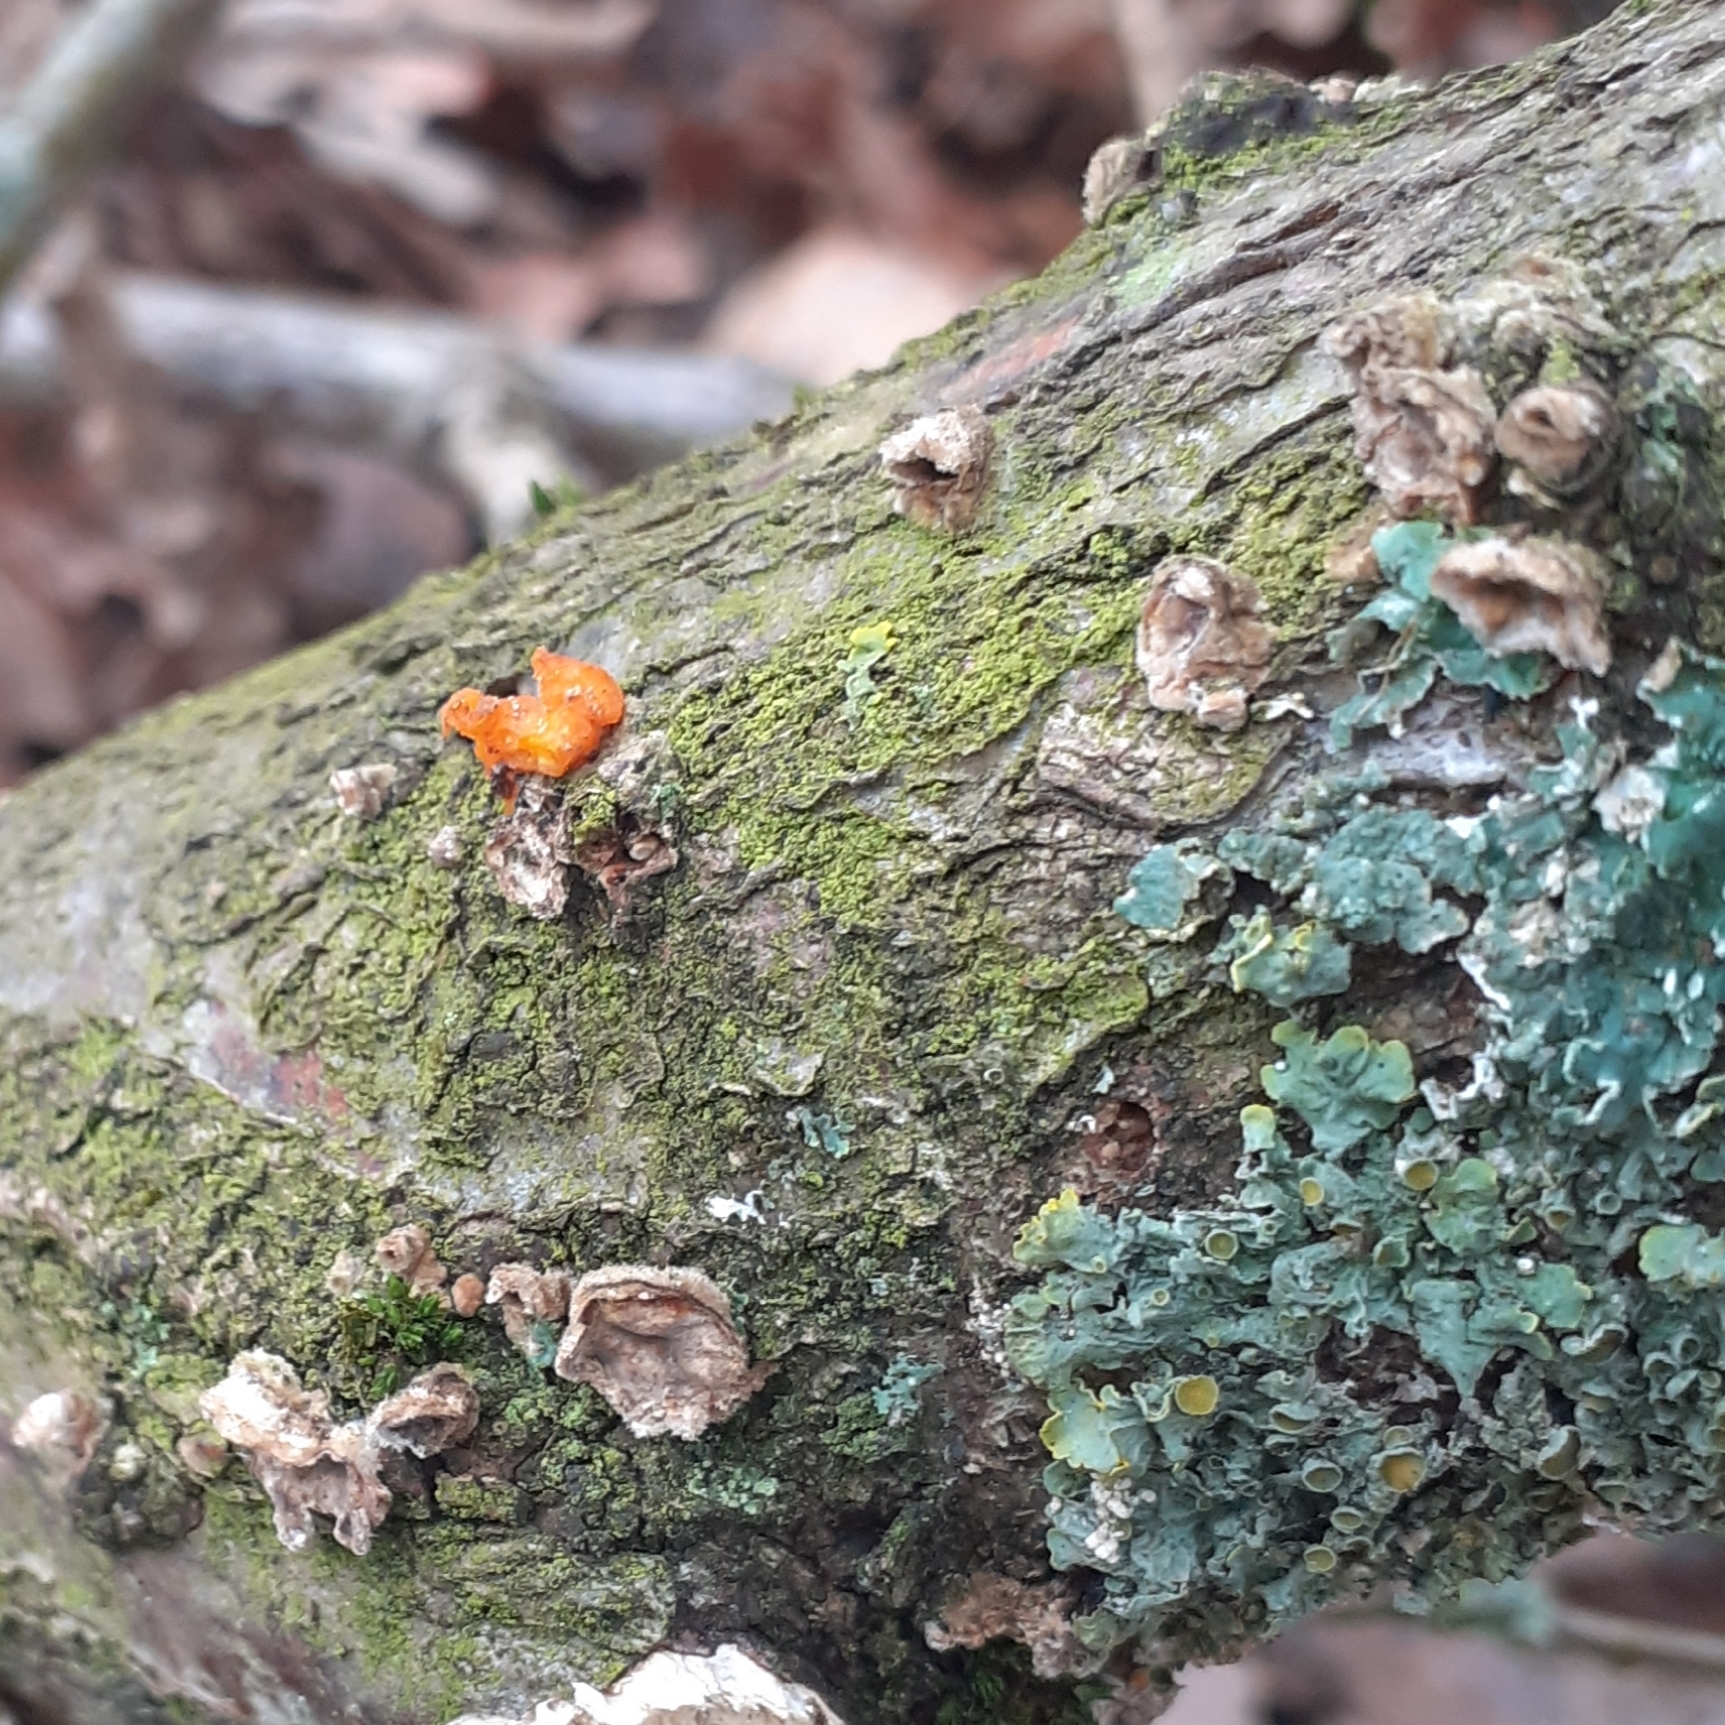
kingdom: Fungi
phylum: Basidiomycota
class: Tremellomycetes
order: Tremellales
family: Naemateliaceae
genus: Naematelia
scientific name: Naematelia aurantia
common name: Golden ear
